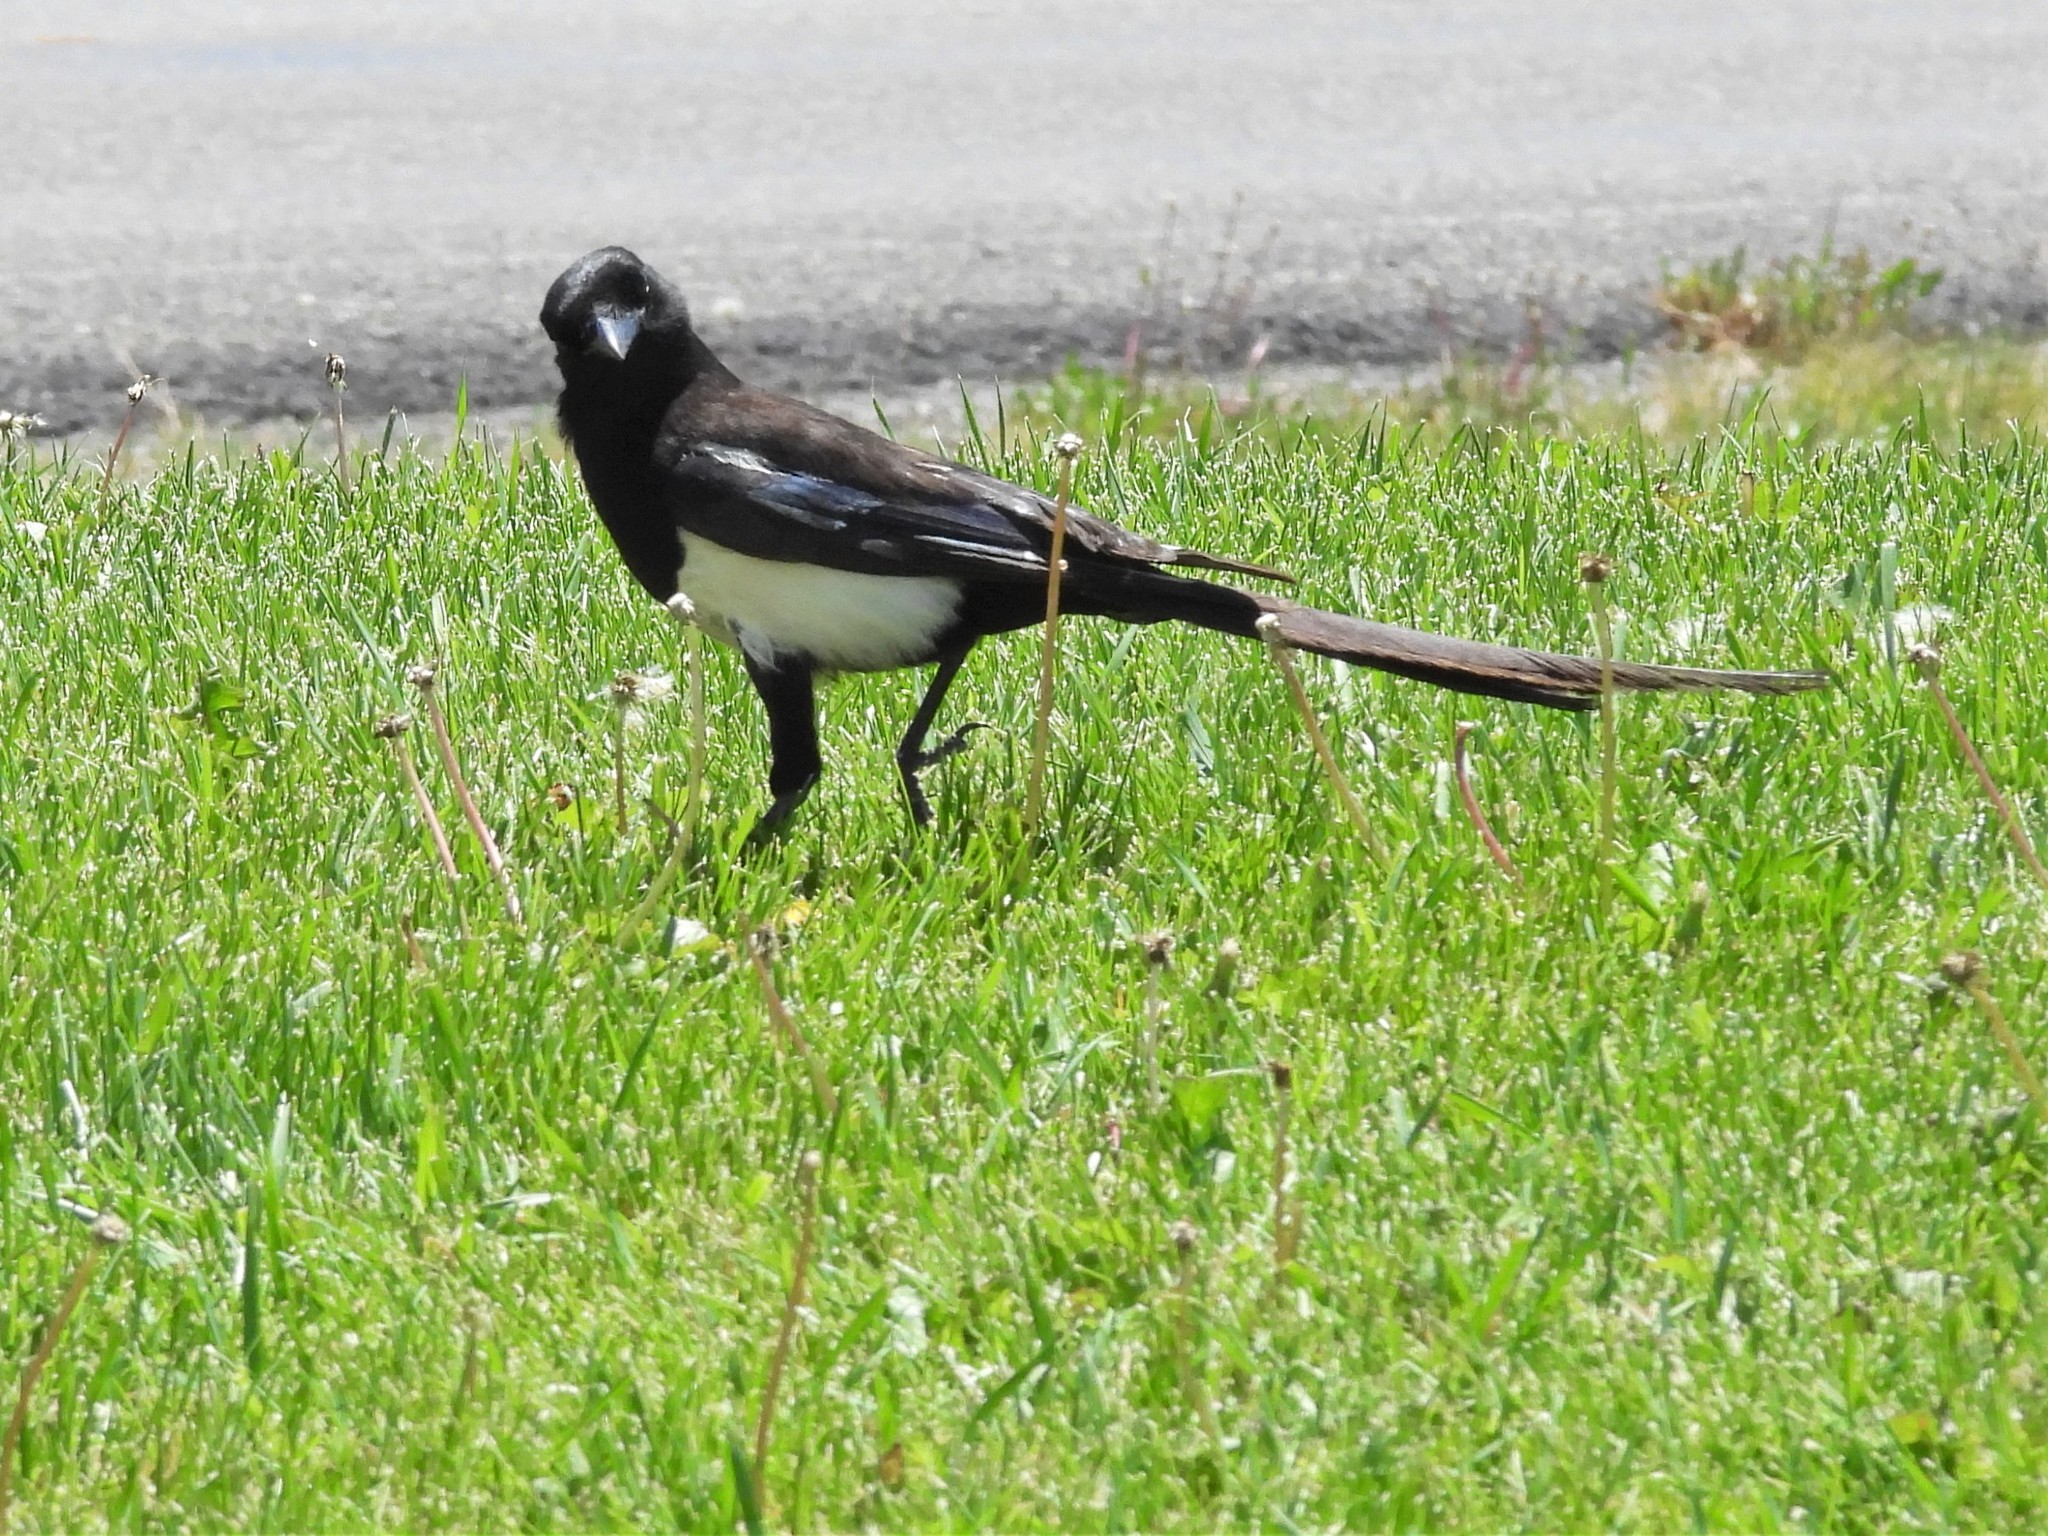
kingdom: Animalia
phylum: Chordata
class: Aves
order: Passeriformes
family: Corvidae
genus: Pica
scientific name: Pica hudsonia
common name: Black-billed magpie
